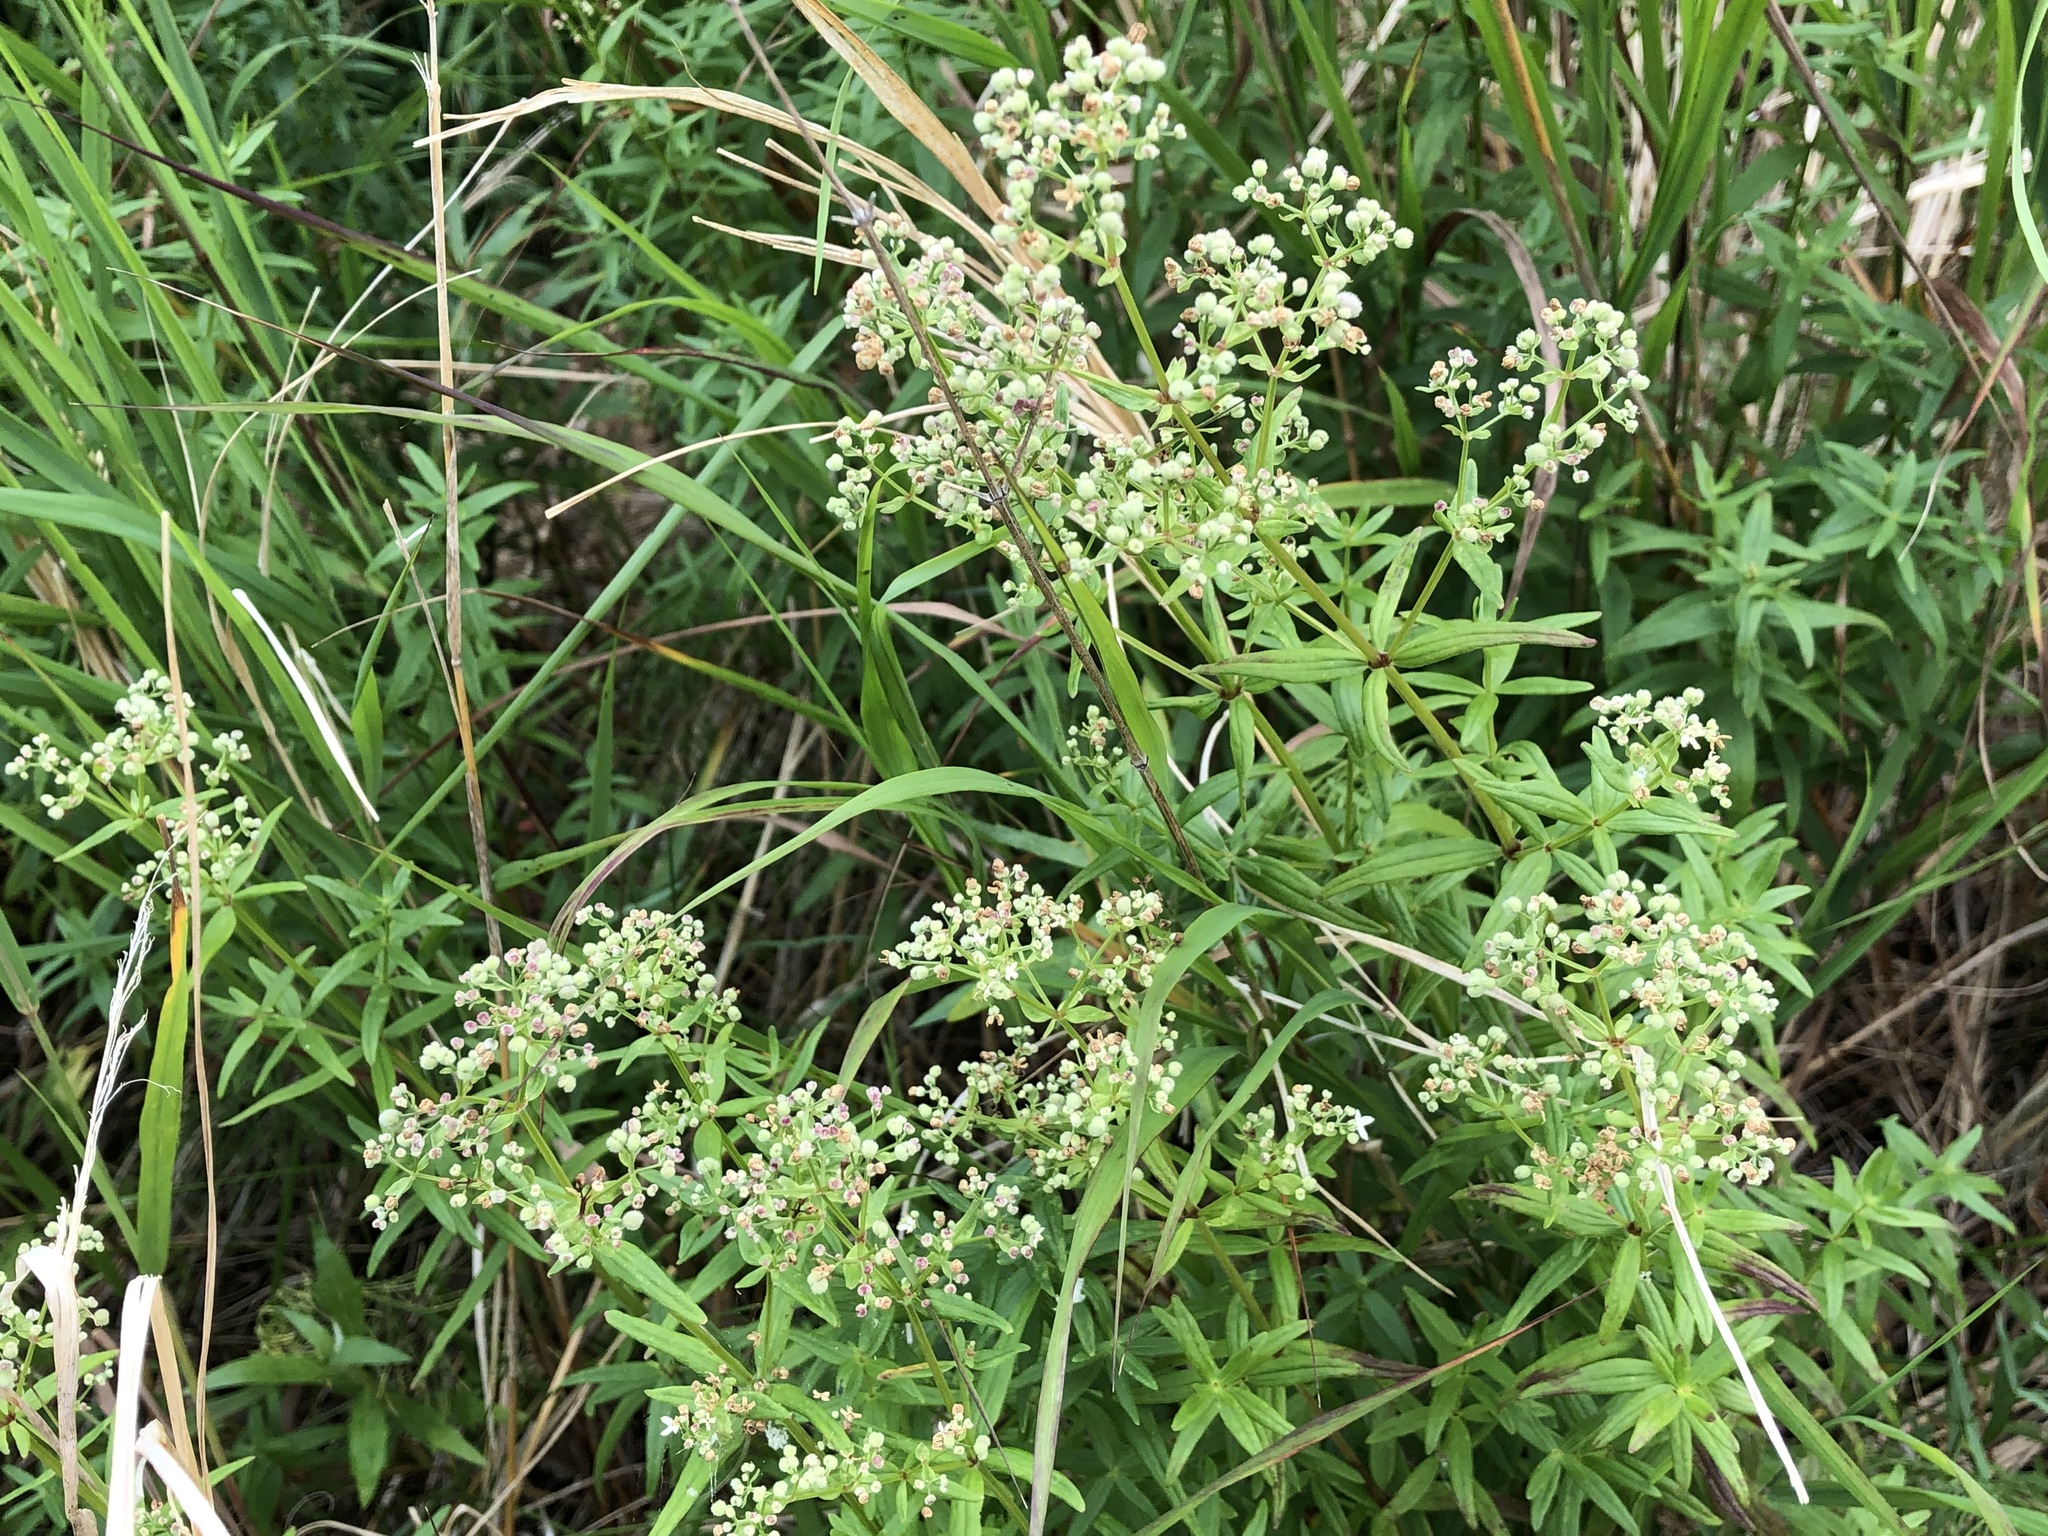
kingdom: Plantae
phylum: Tracheophyta
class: Magnoliopsida
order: Gentianales
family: Rubiaceae
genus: Galium
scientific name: Galium boreale
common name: Northern bedstraw
